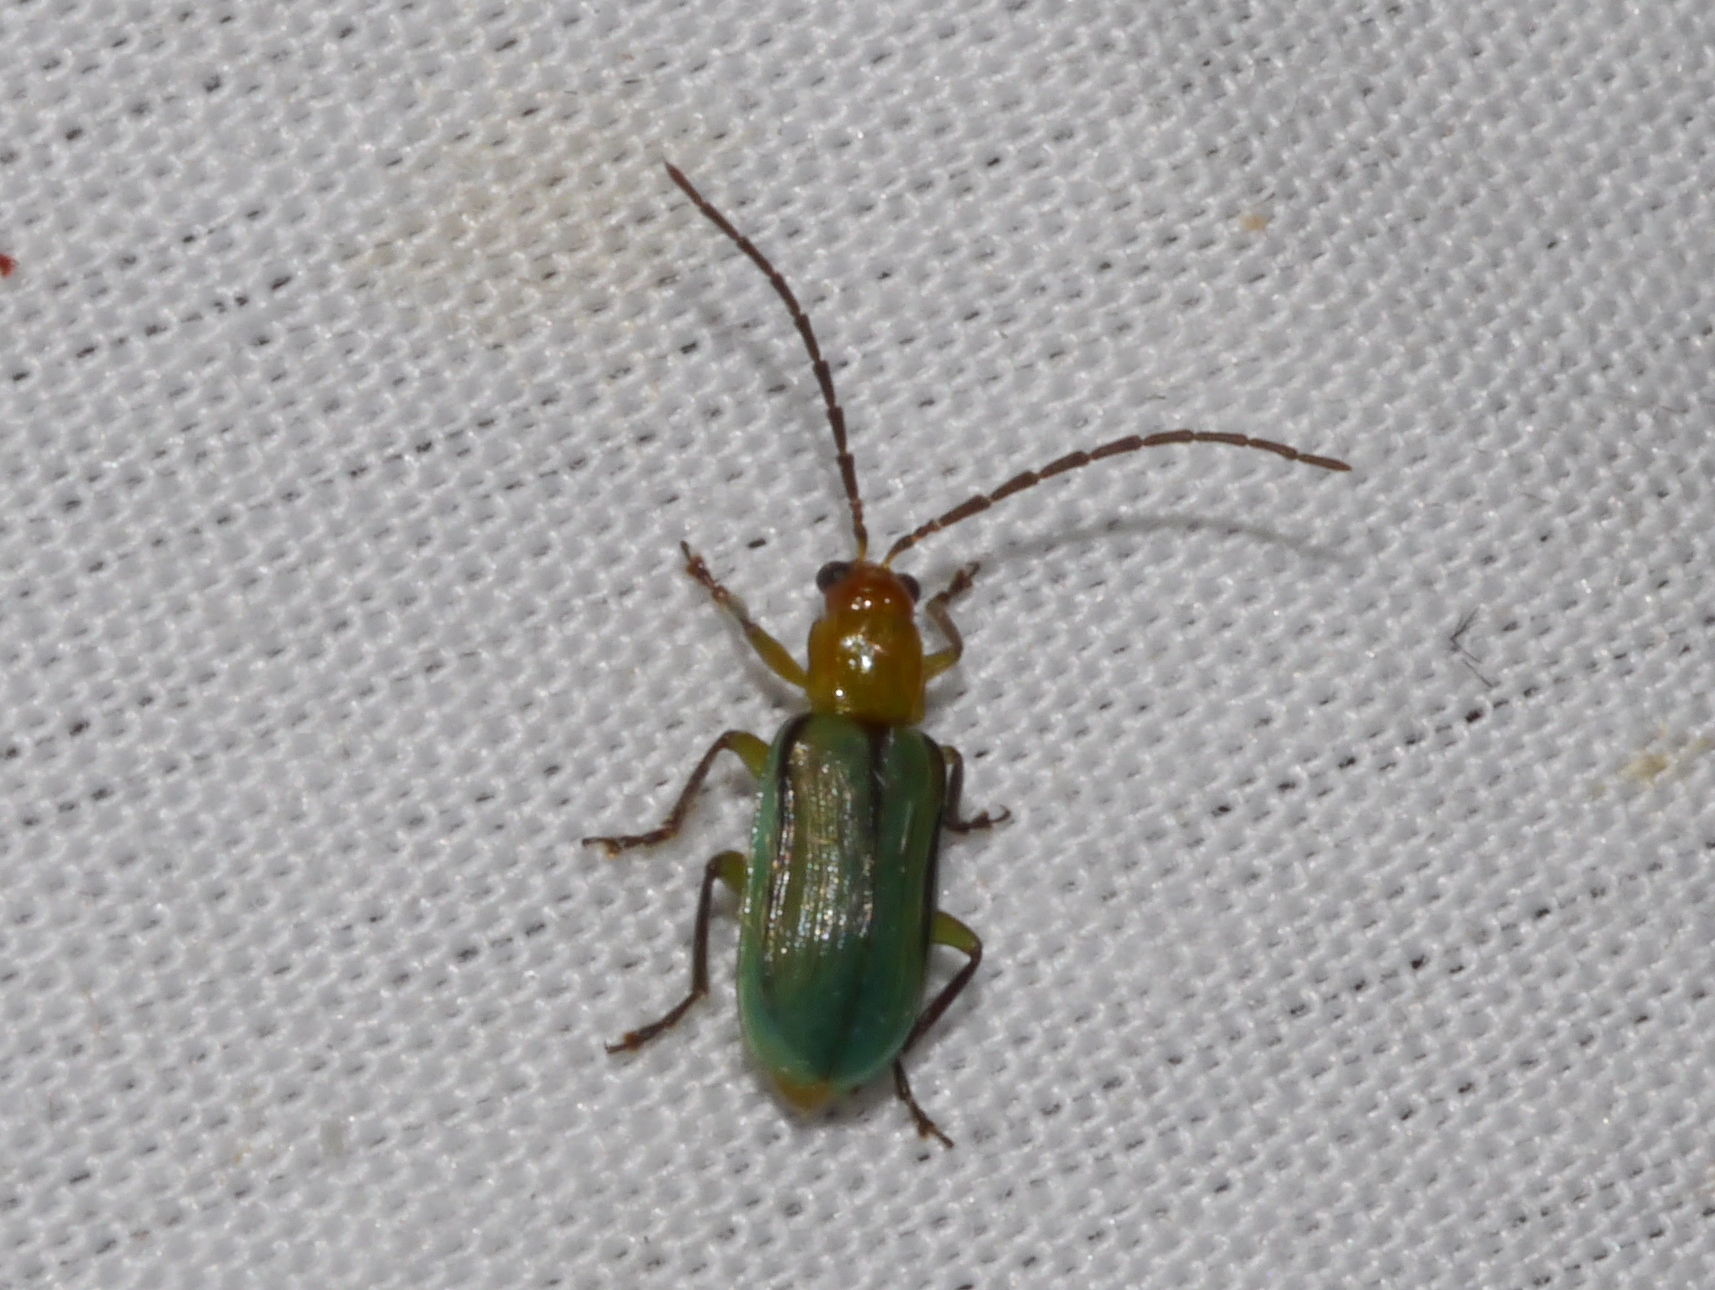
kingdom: Animalia
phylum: Arthropoda
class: Insecta
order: Coleoptera
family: Chrysomelidae
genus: Diabrotica
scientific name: Diabrotica longicornis
